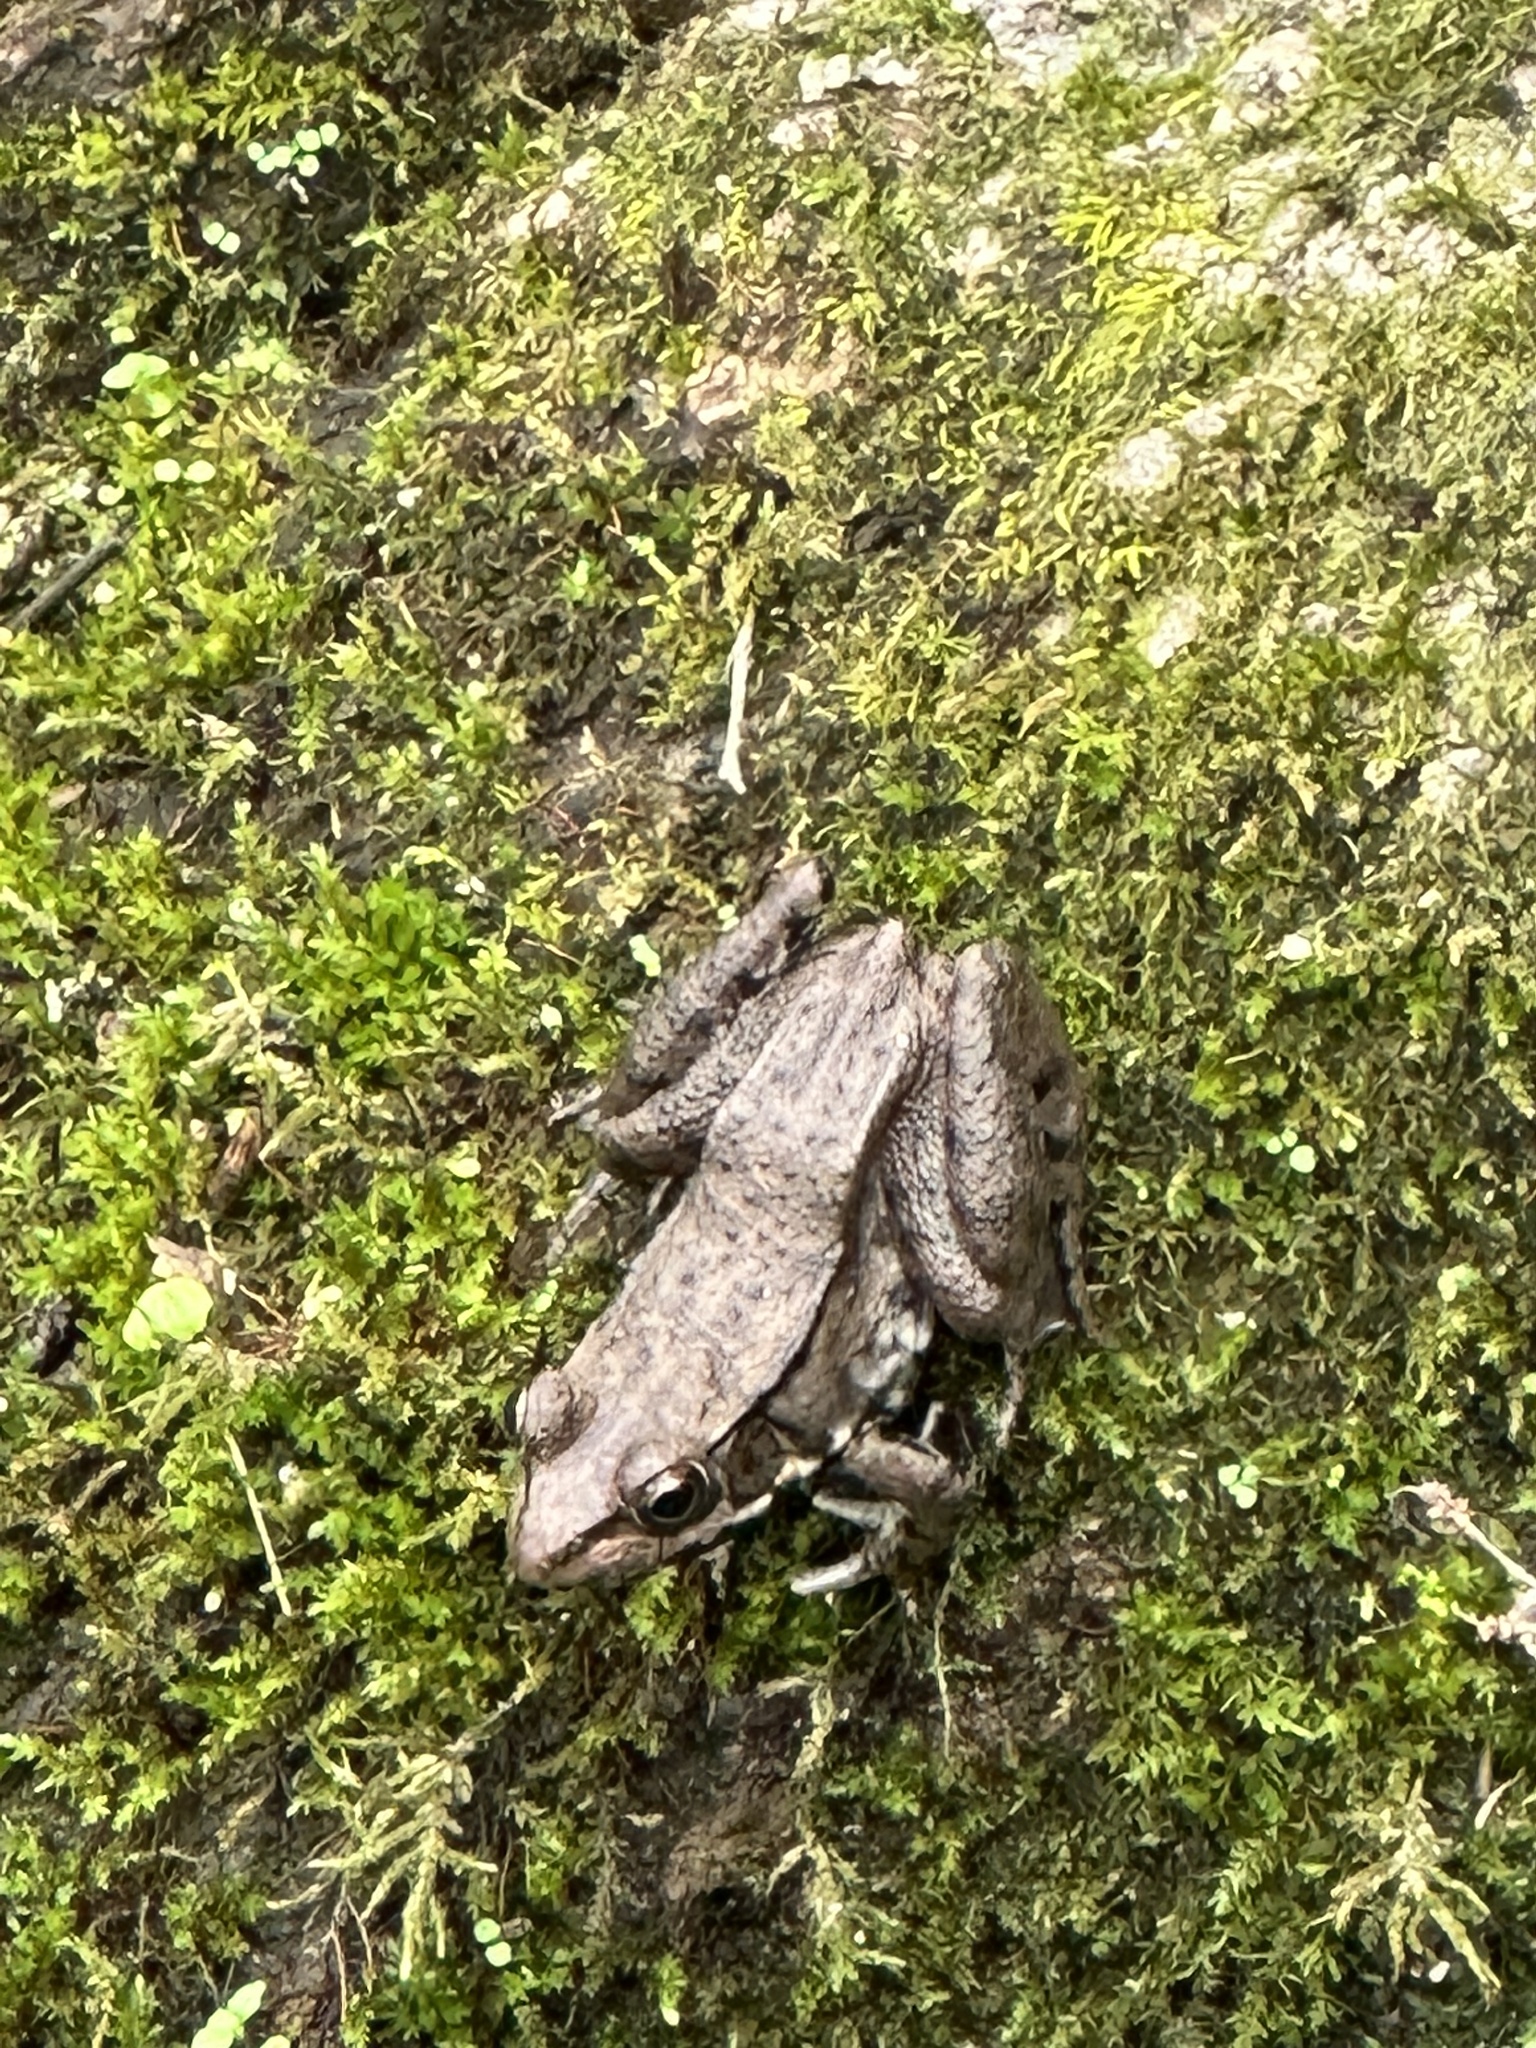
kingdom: Animalia
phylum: Chordata
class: Amphibia
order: Anura
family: Ranidae
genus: Lithobates
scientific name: Lithobates clamitans
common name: Green frog
